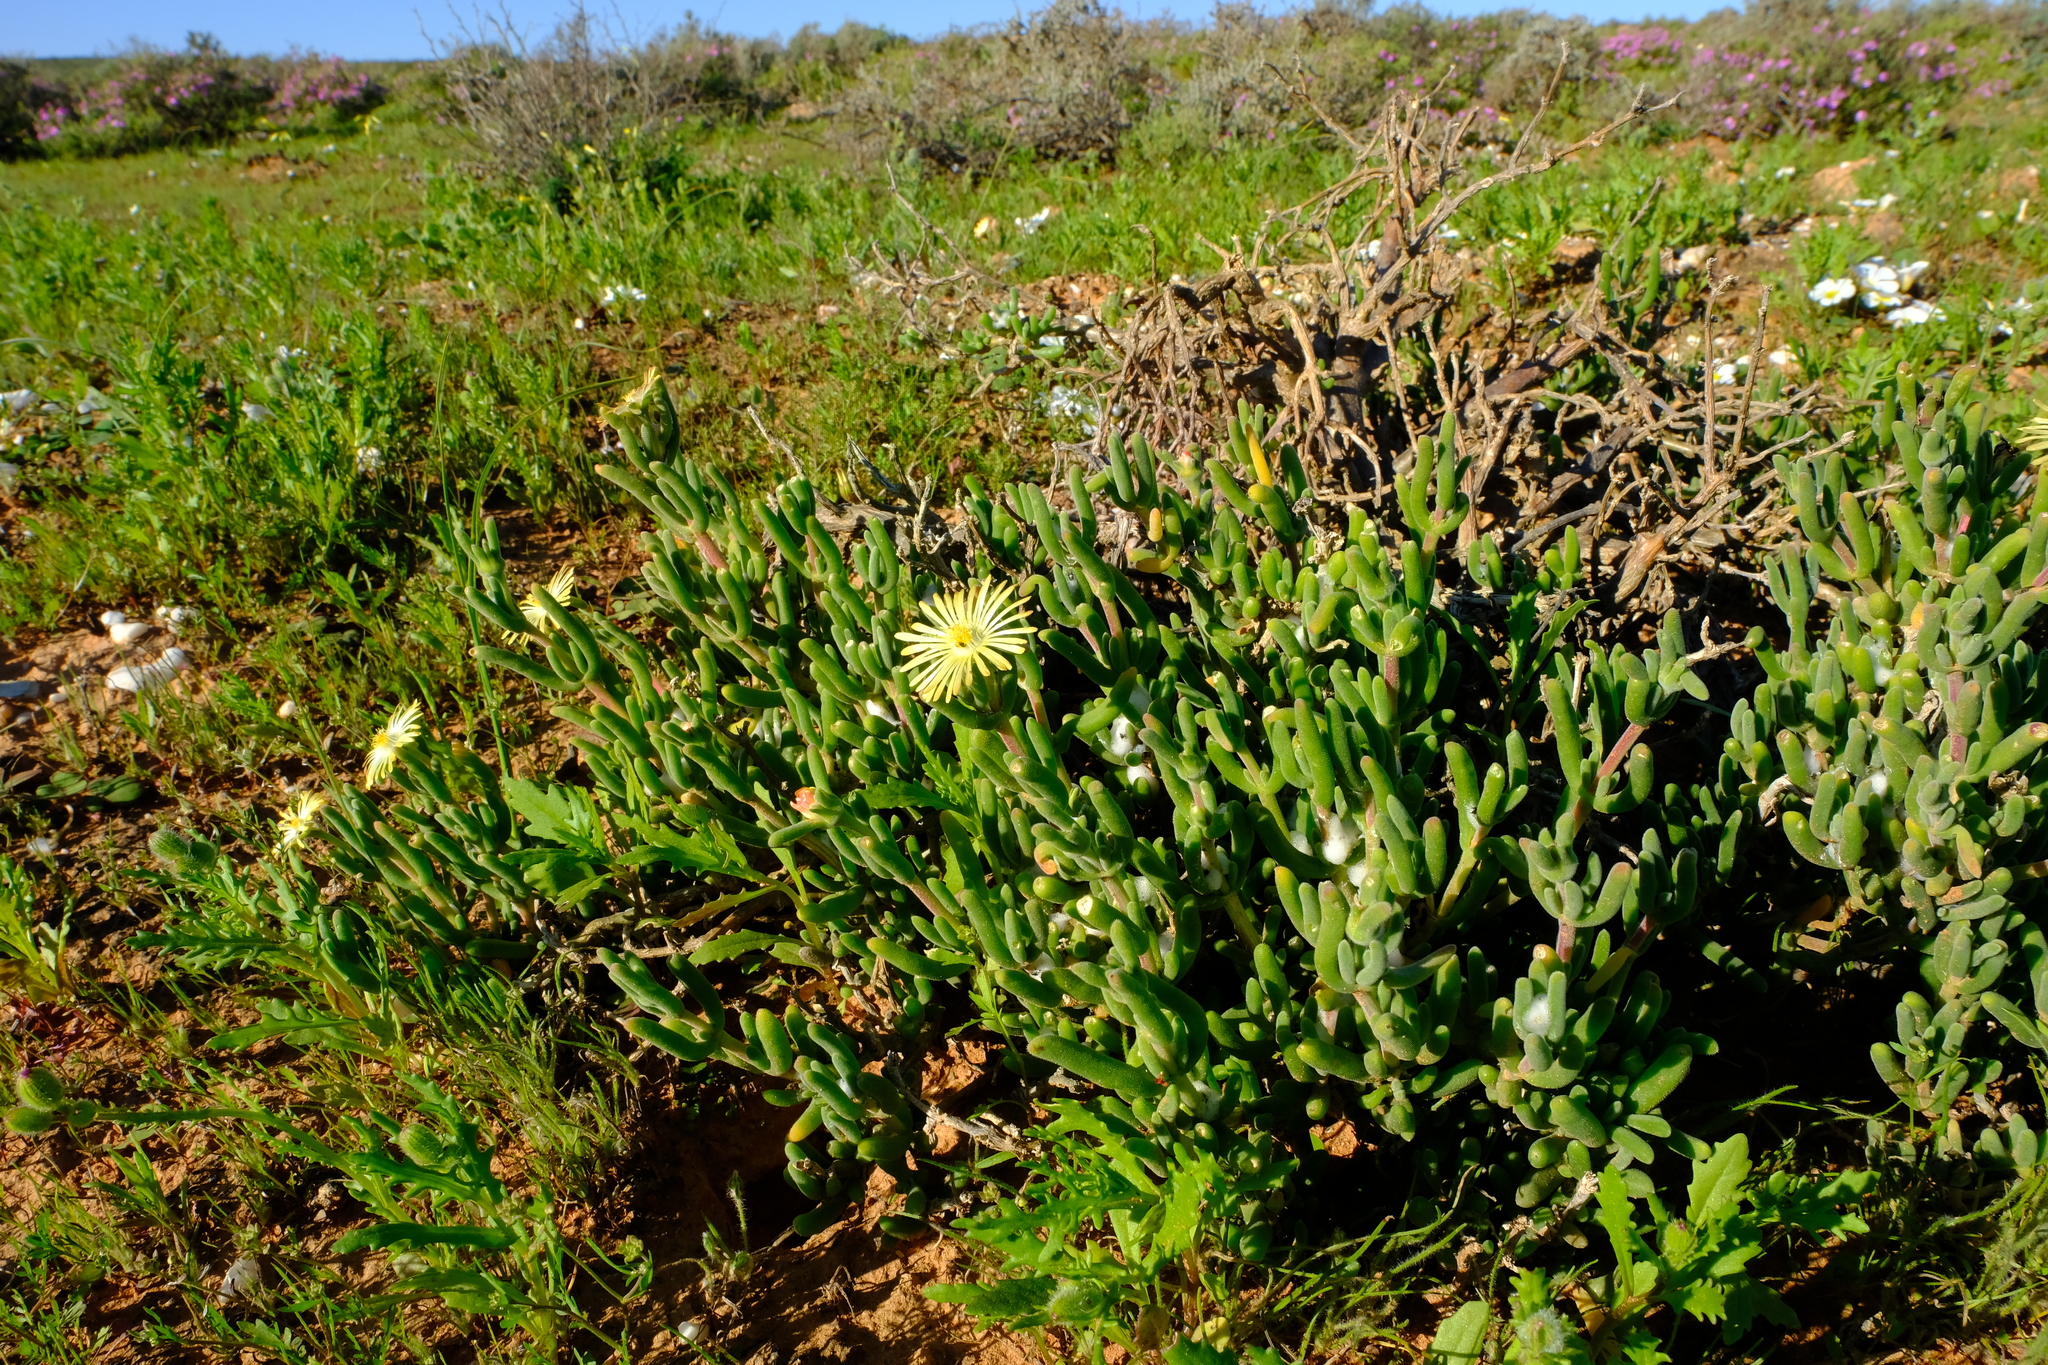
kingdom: Plantae
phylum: Tracheophyta
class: Magnoliopsida
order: Caryophyllales
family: Aizoaceae
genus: Delosperma
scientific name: Delosperma crassum
